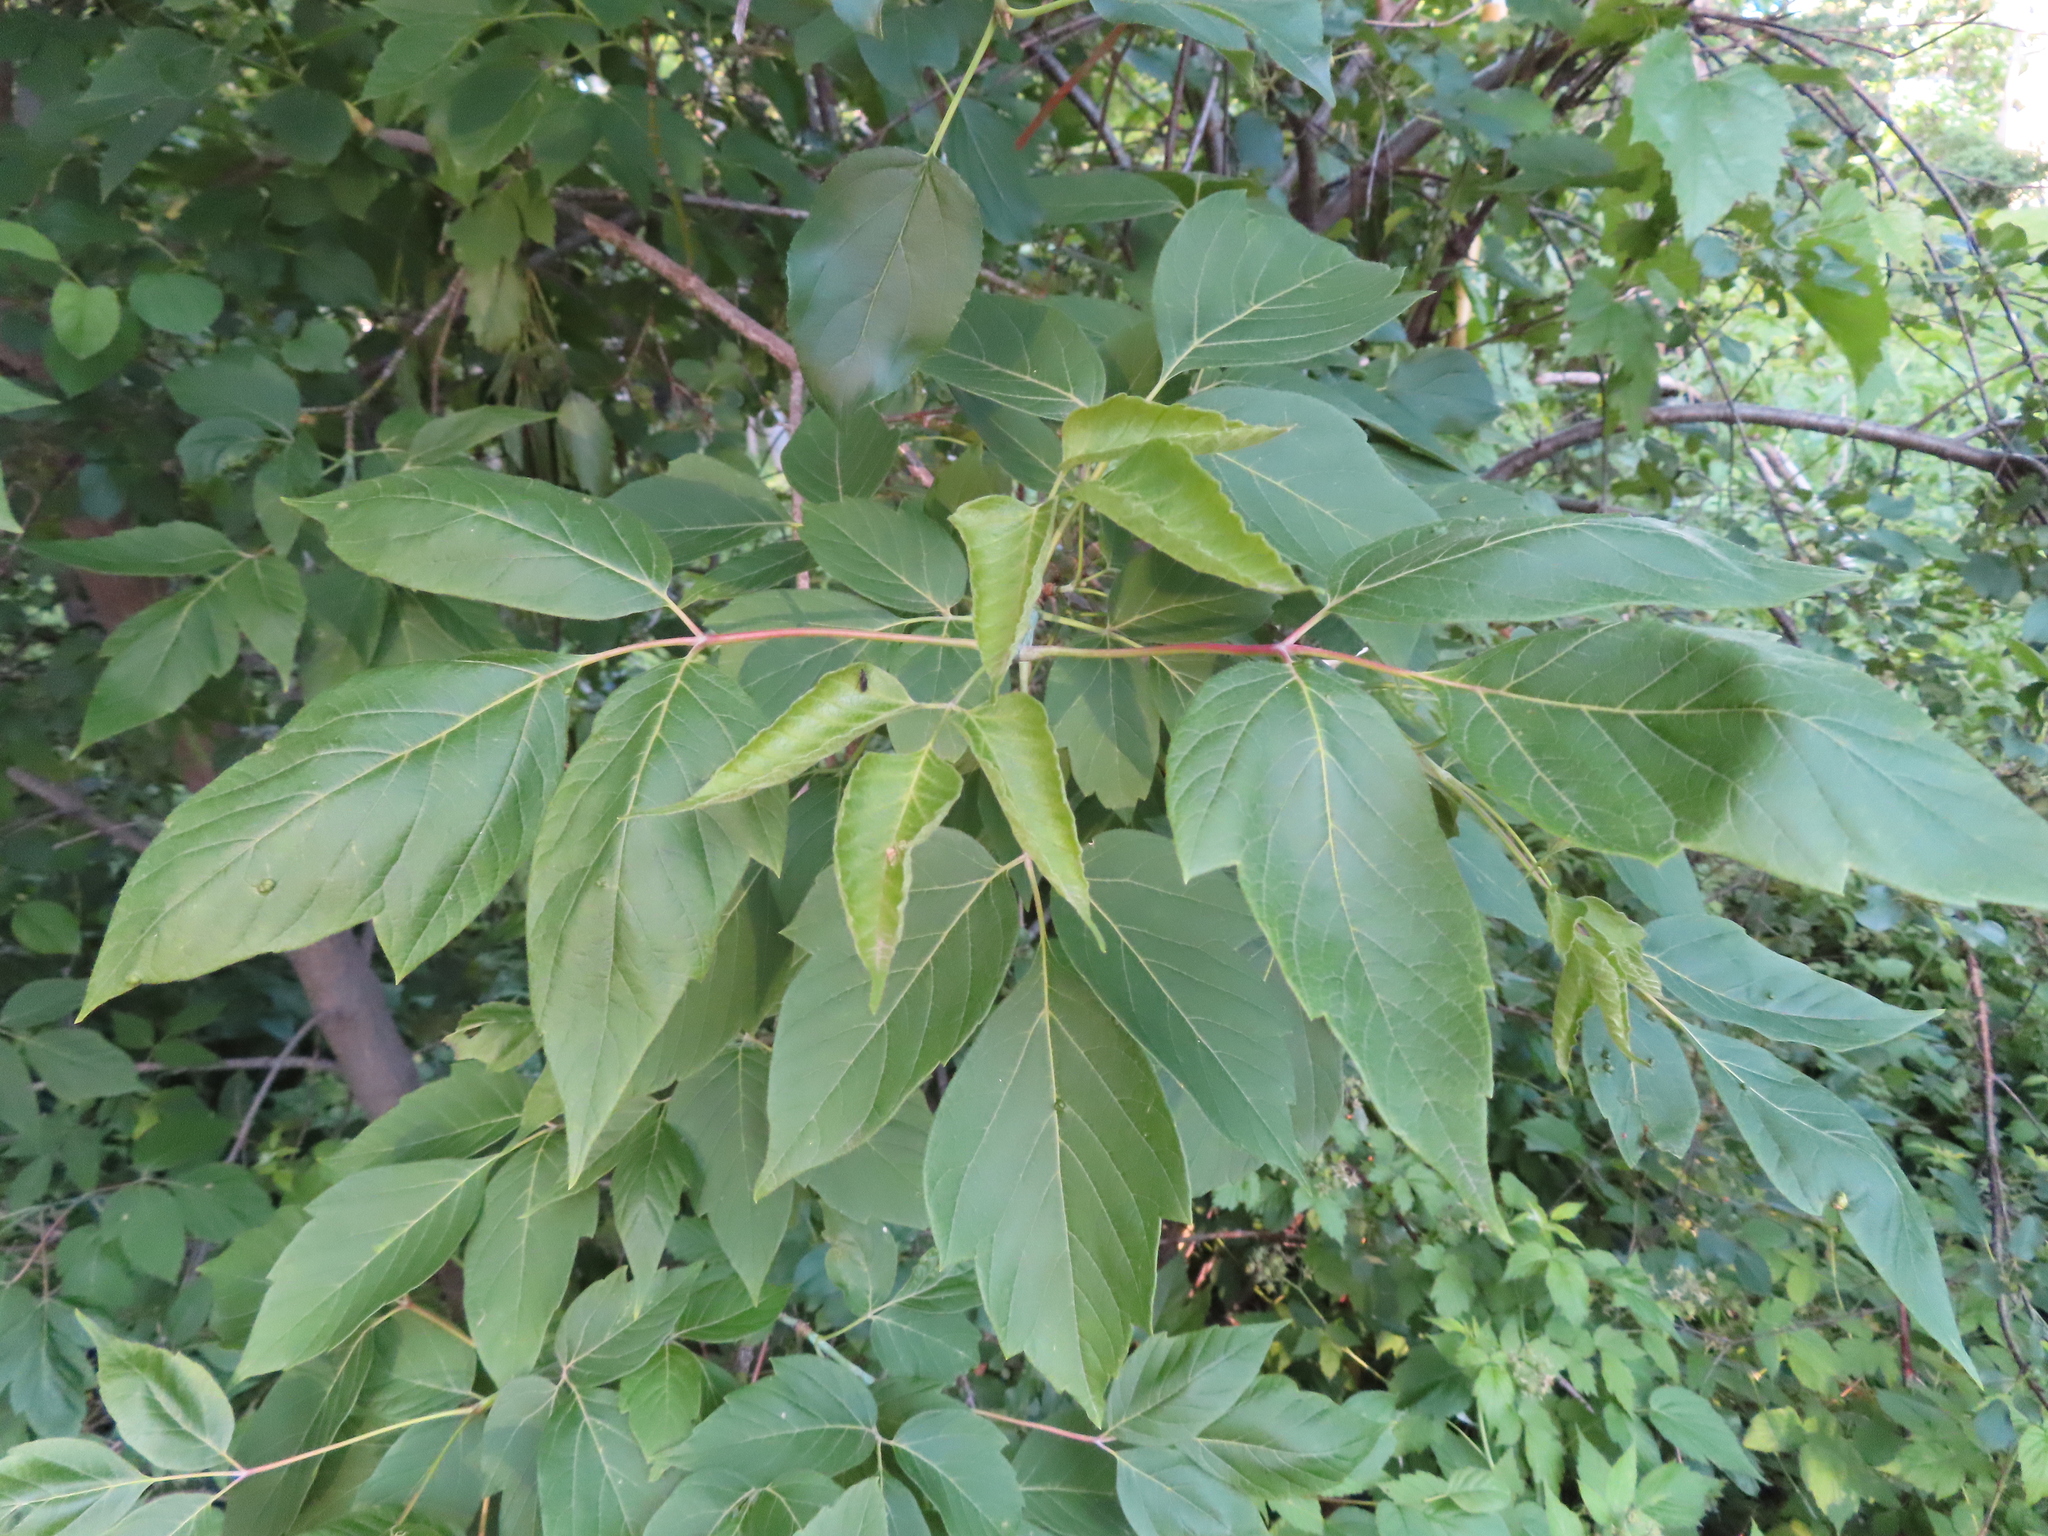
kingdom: Plantae
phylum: Tracheophyta
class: Magnoliopsida
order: Sapindales
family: Sapindaceae
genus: Acer
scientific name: Acer negundo
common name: Ashleaf maple
